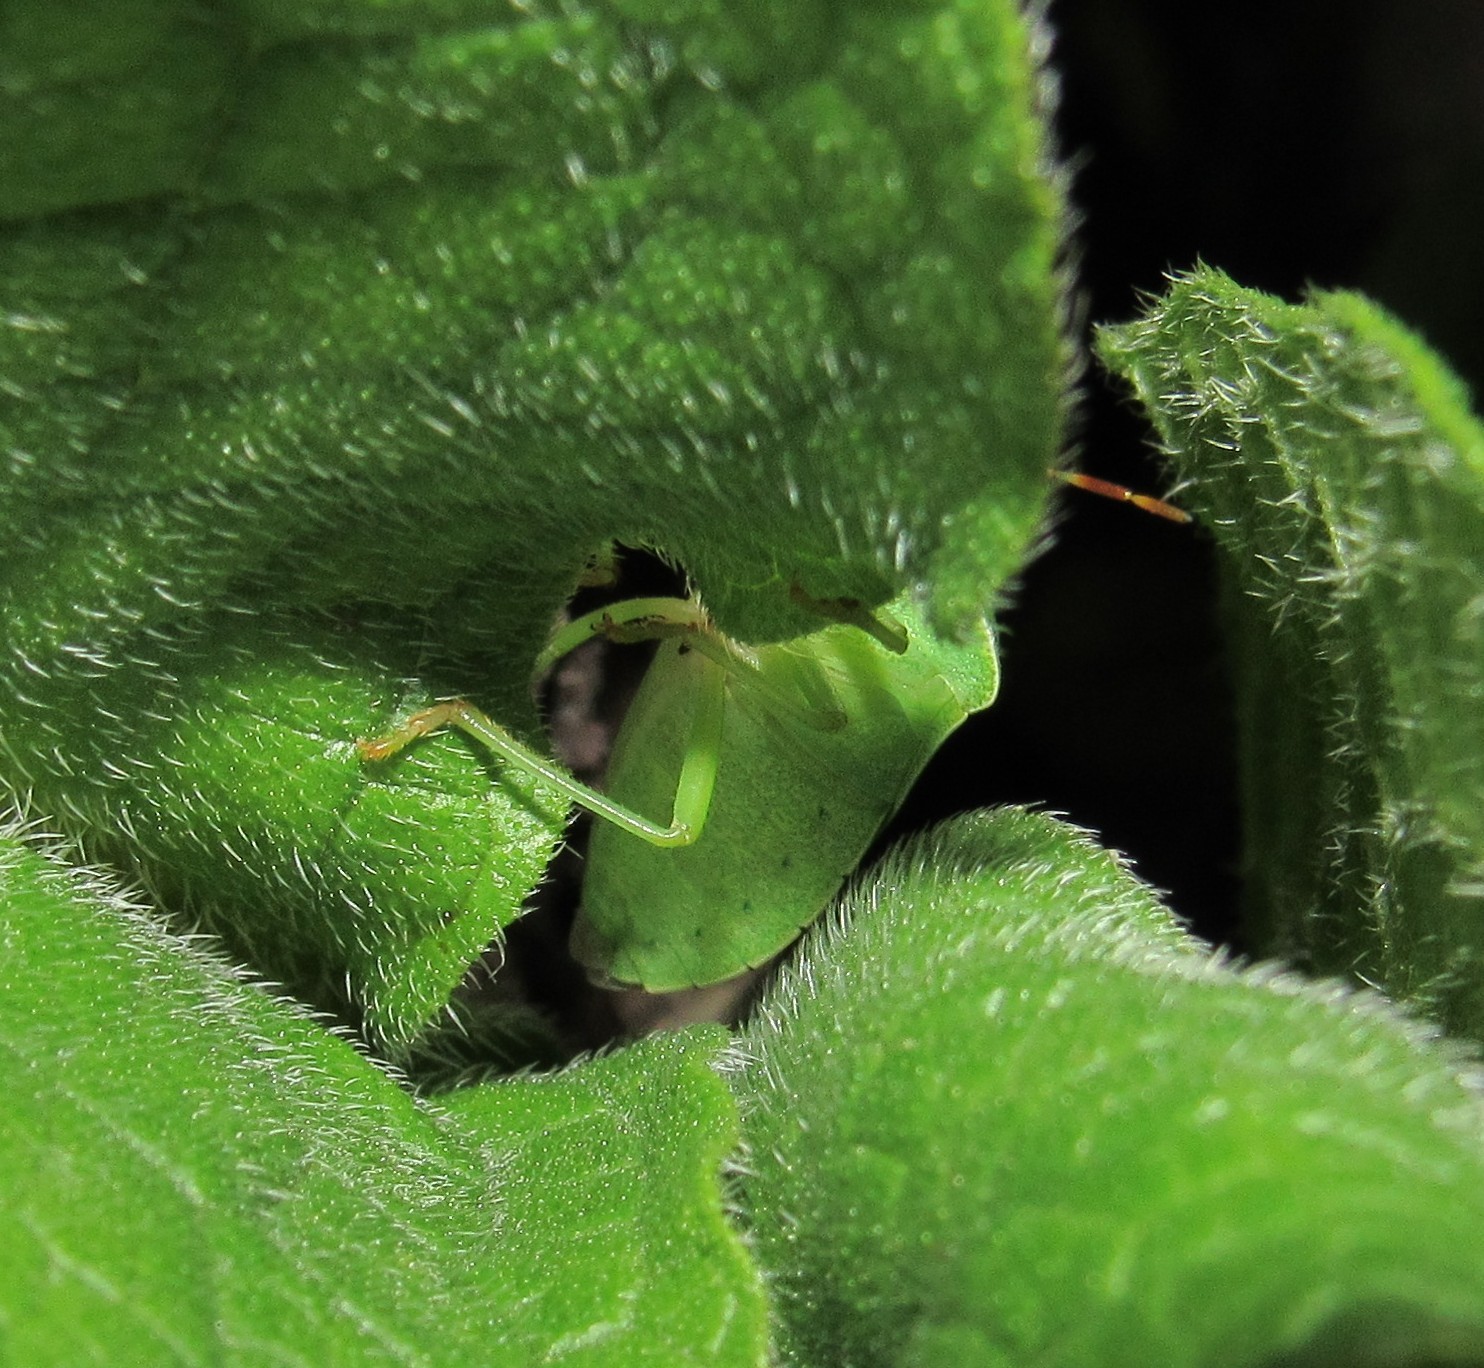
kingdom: Animalia
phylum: Arthropoda
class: Insecta
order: Hemiptera
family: Pentatomidae
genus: Nezara
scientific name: Nezara viridula
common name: Southern green stink bug
